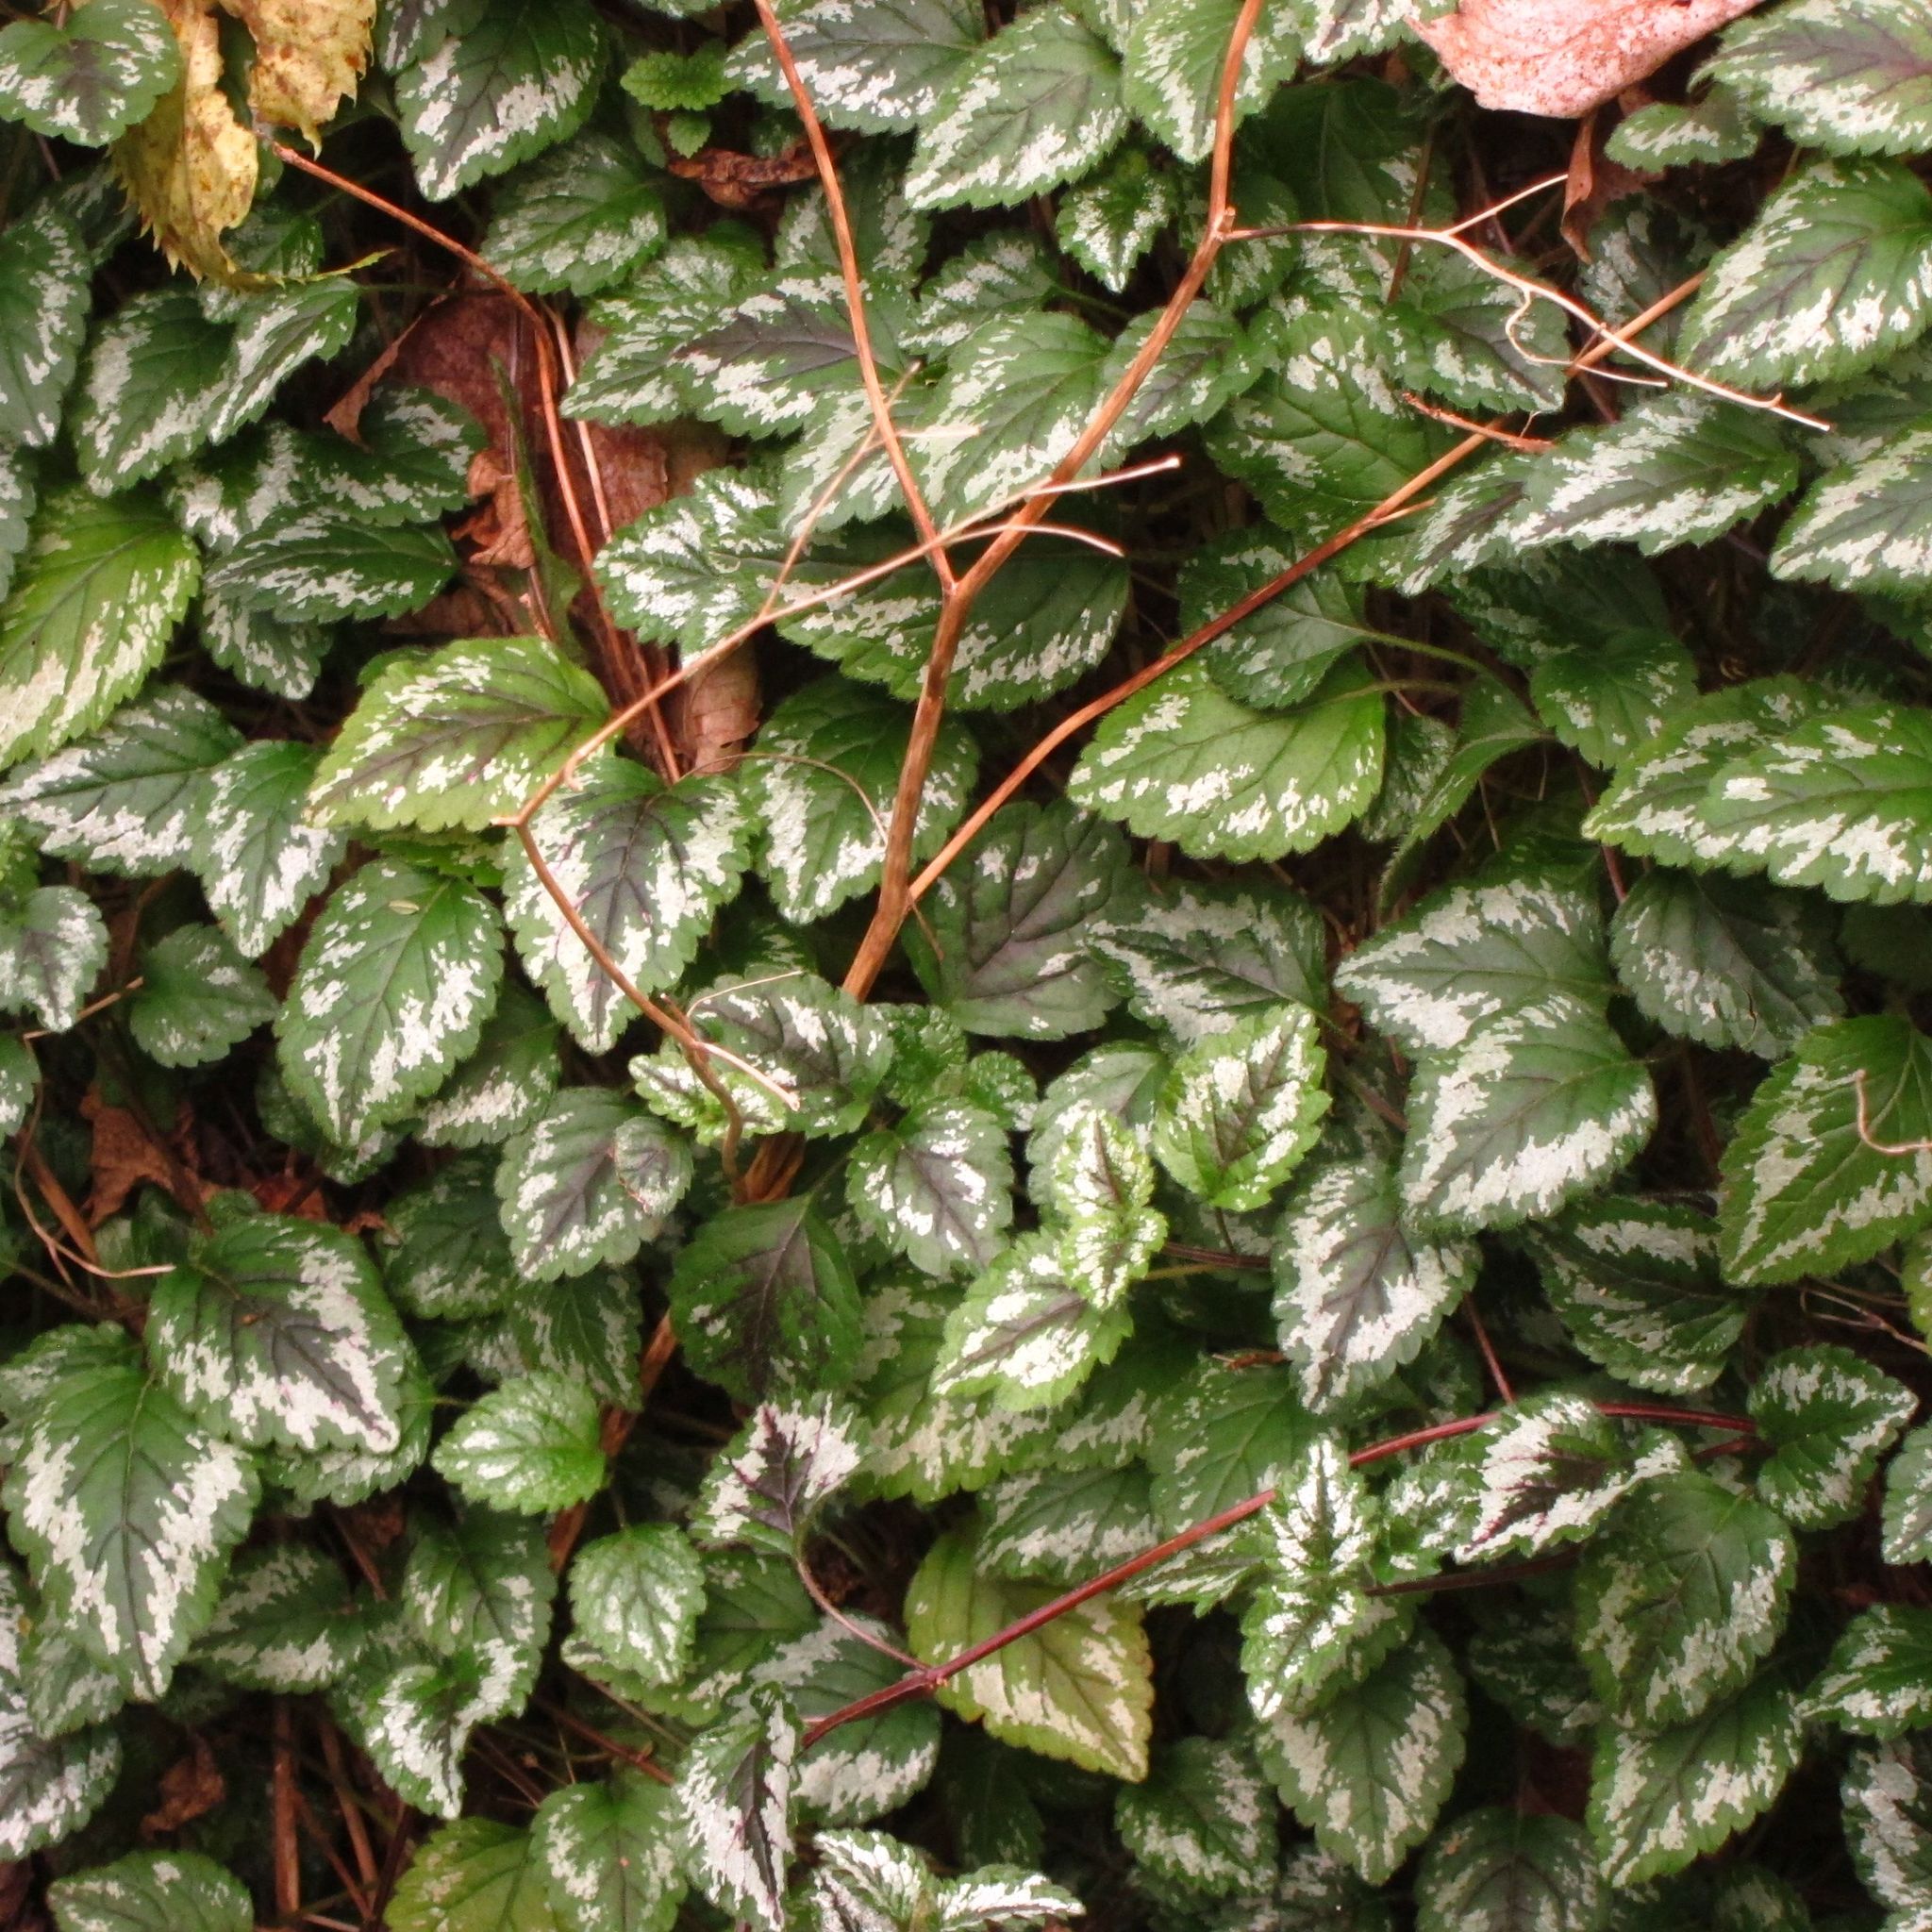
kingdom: Plantae
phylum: Tracheophyta
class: Magnoliopsida
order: Lamiales
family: Lamiaceae
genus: Lamium
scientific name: Lamium galeobdolon
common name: Yellow archangel
